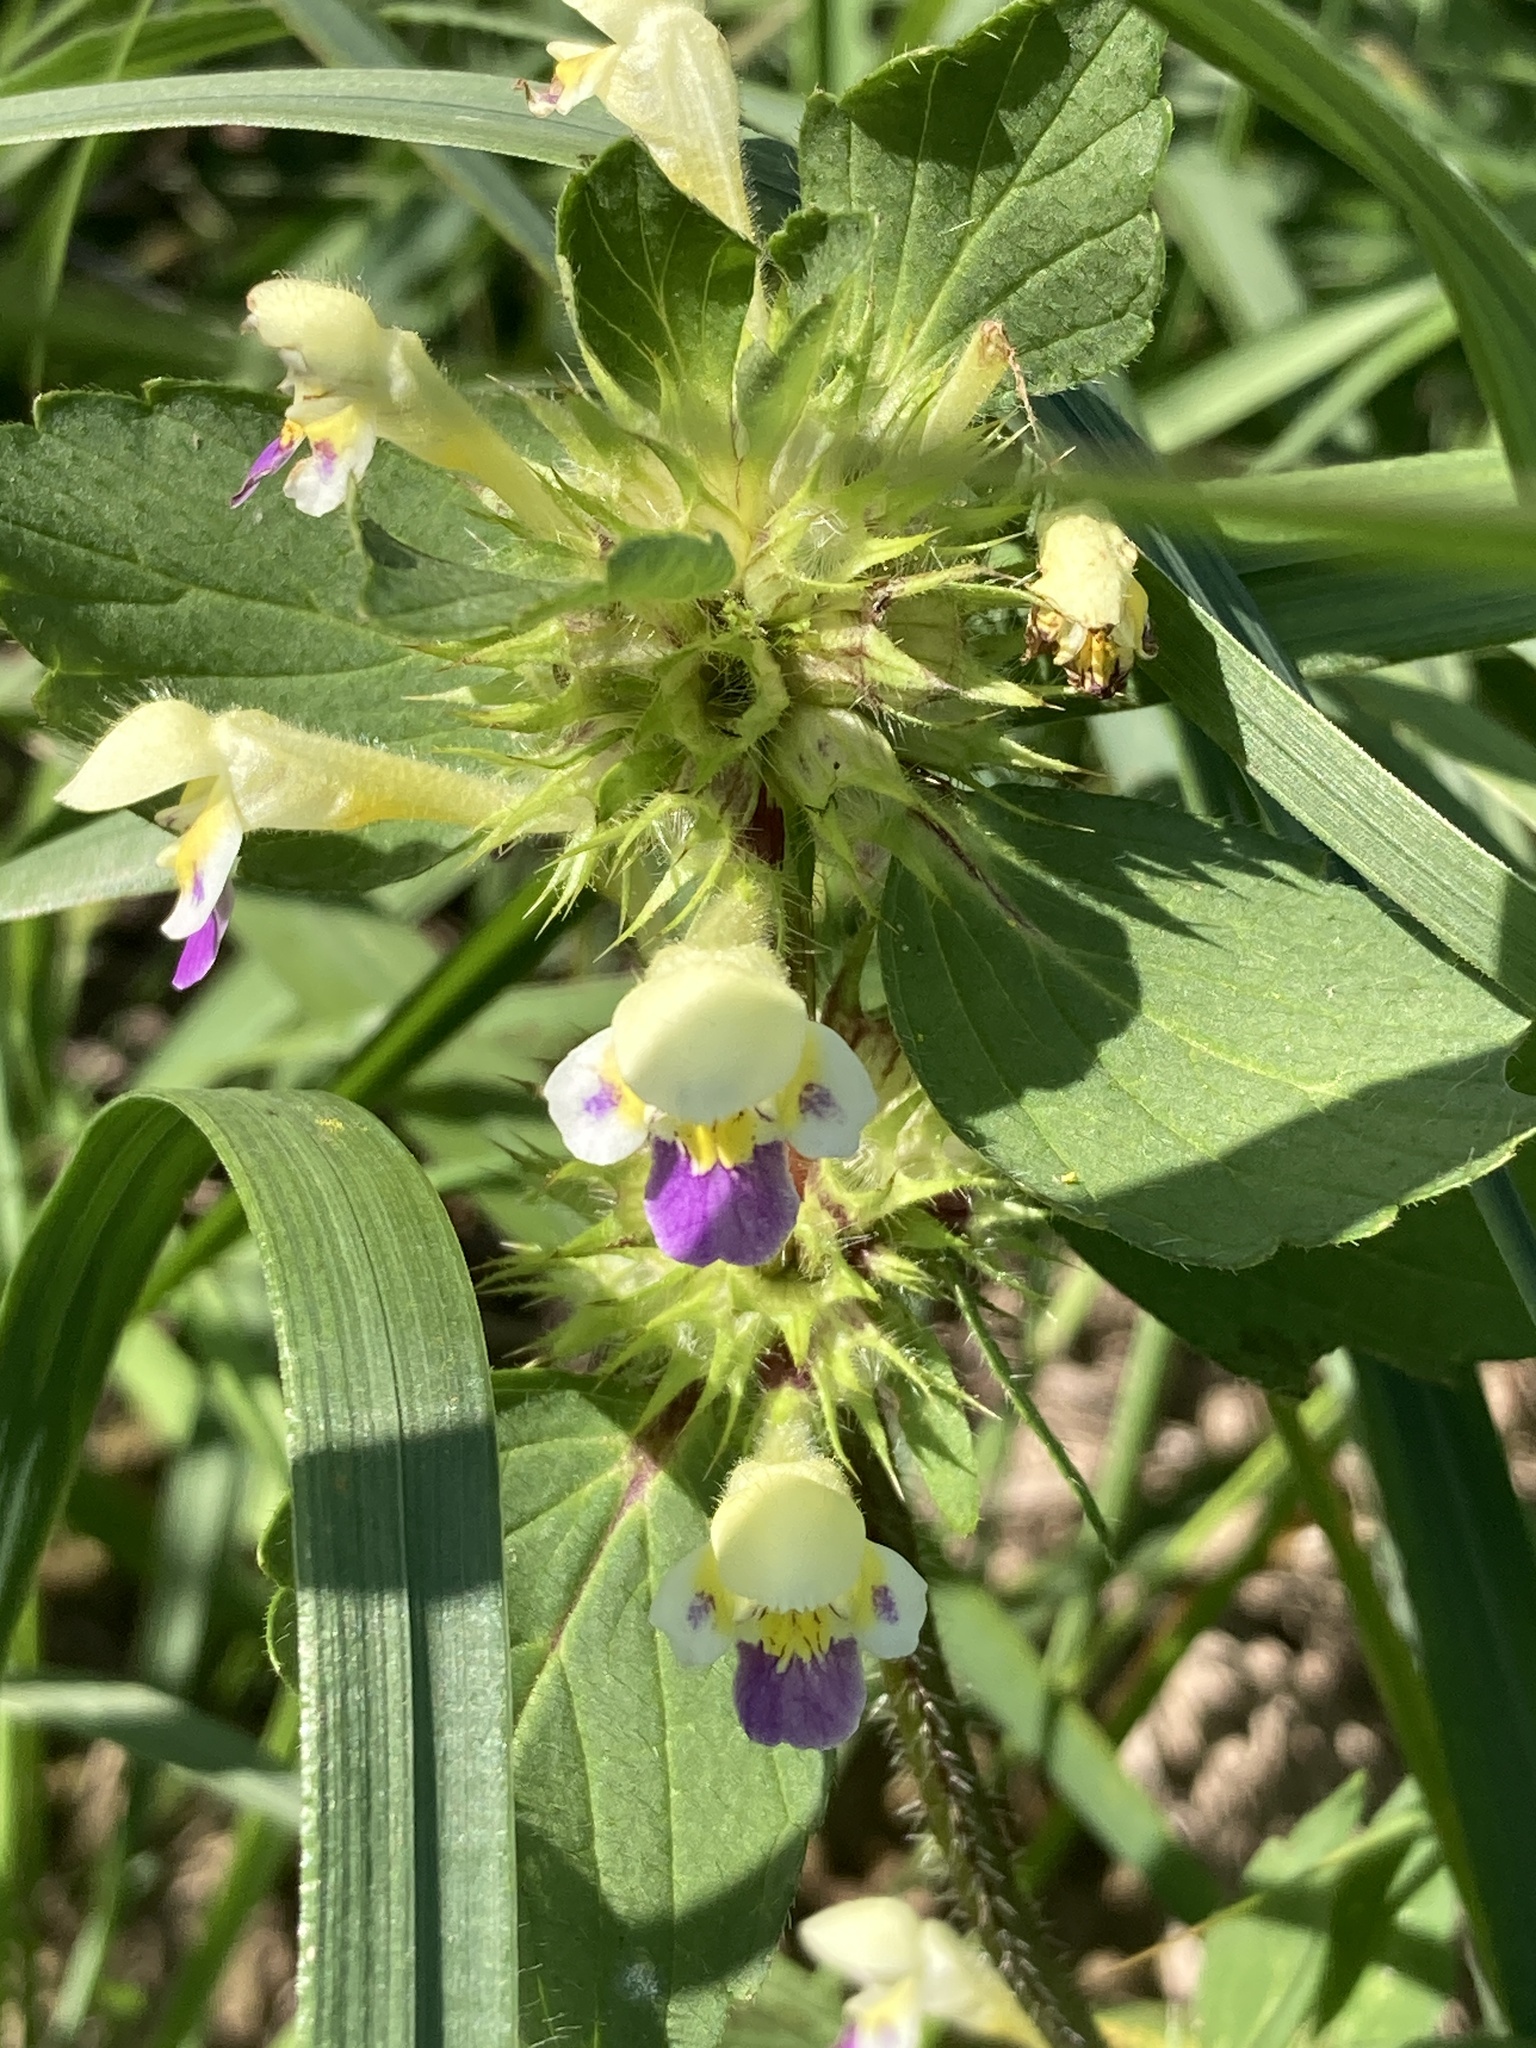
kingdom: Plantae
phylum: Tracheophyta
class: Magnoliopsida
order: Lamiales
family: Lamiaceae
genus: Galeopsis
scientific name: Galeopsis speciosa
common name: Large-flowered hemp-nettle
